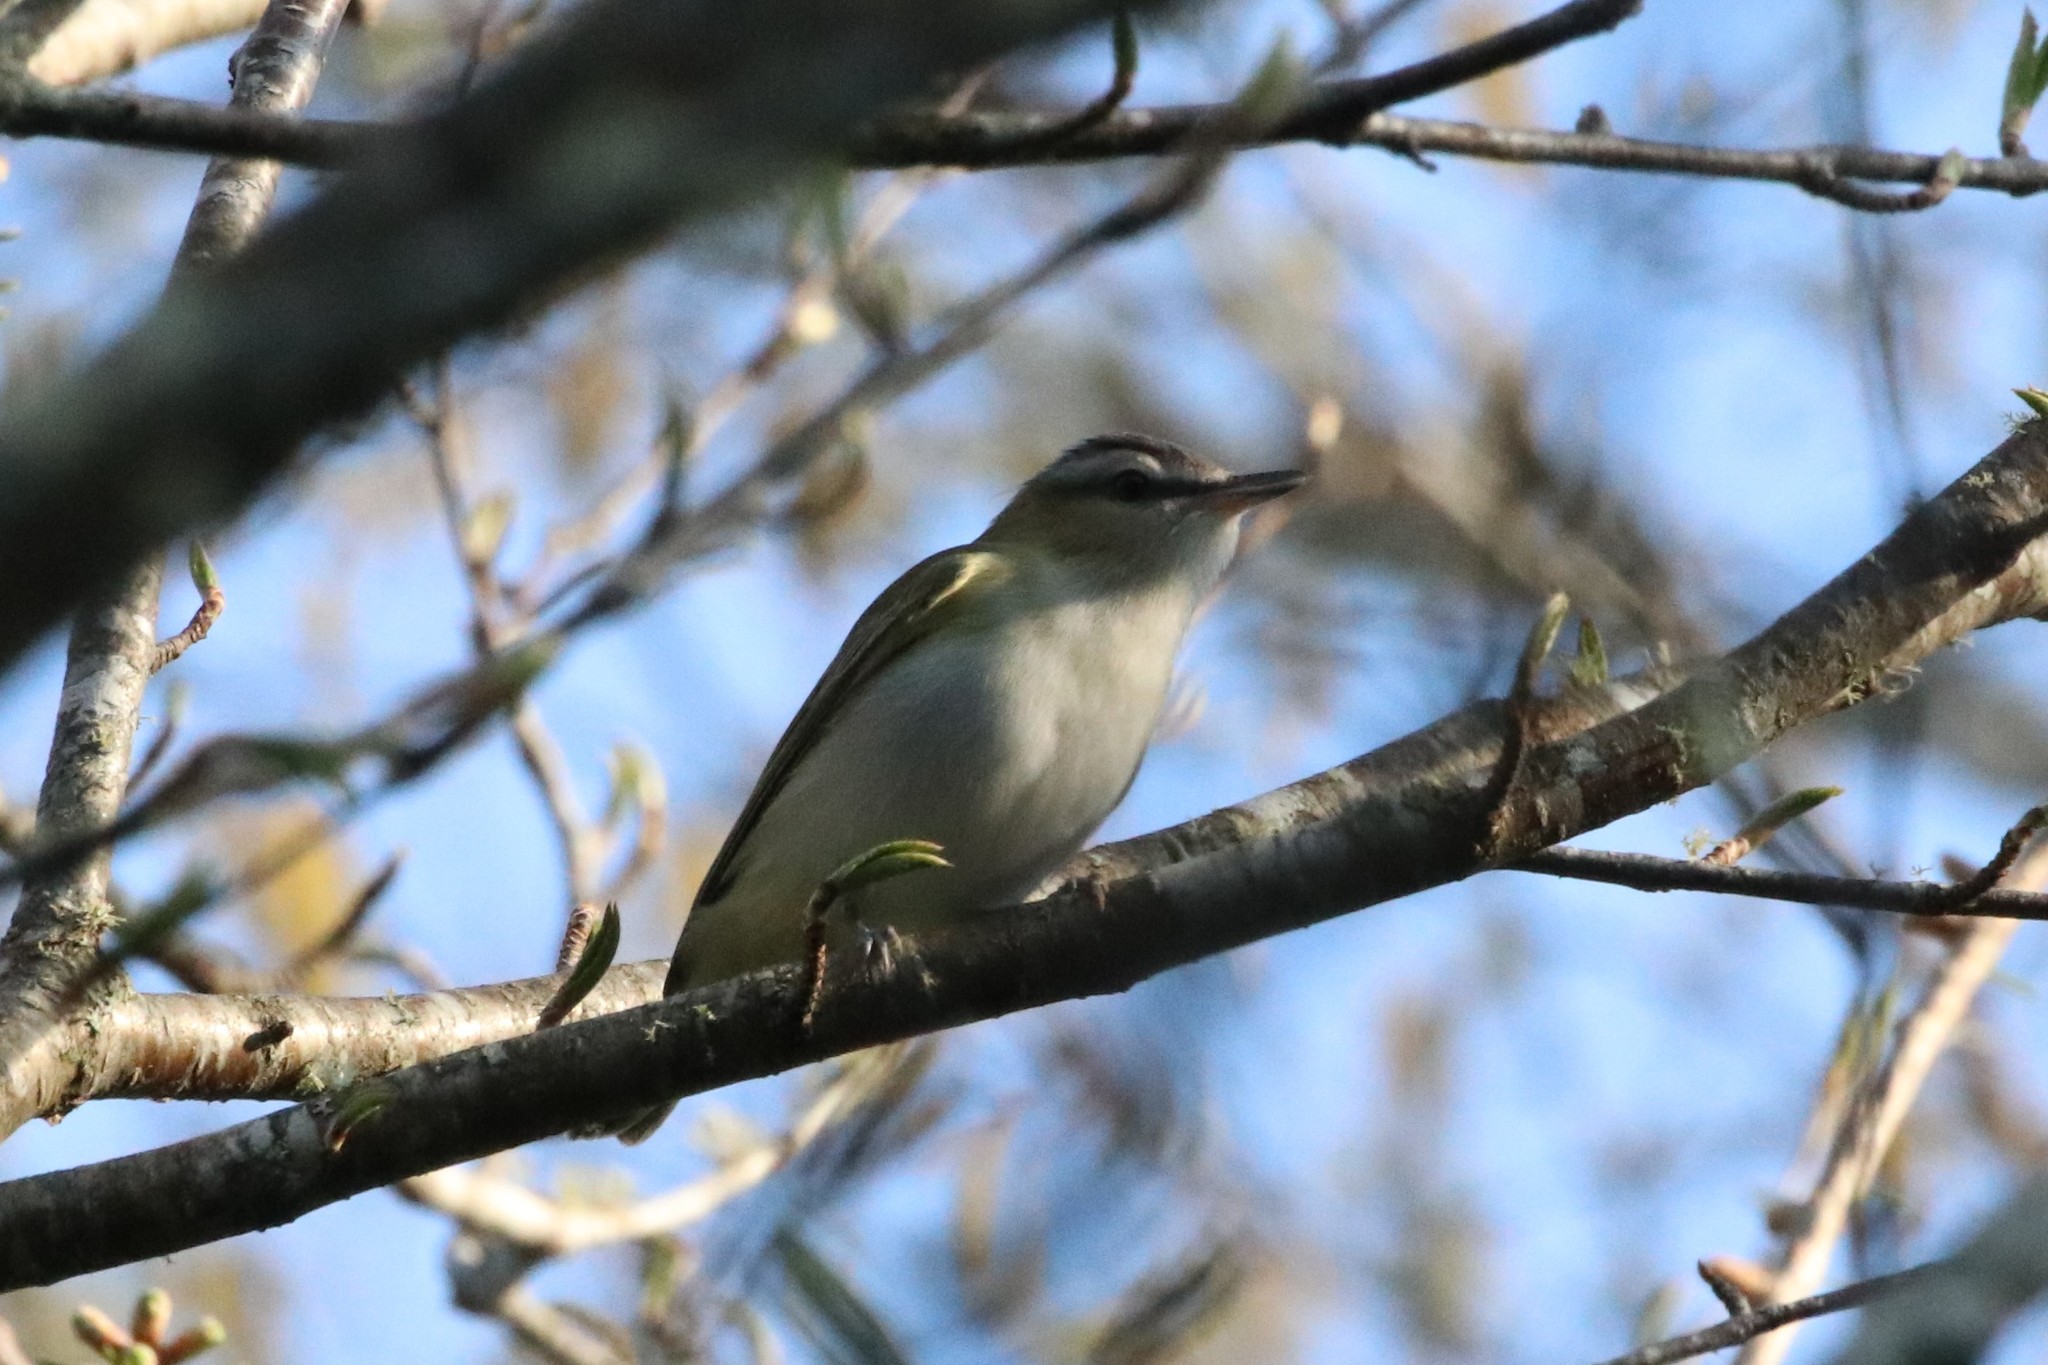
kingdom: Animalia
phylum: Chordata
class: Aves
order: Passeriformes
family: Vireonidae
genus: Vireo
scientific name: Vireo olivaceus
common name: Red-eyed vireo
